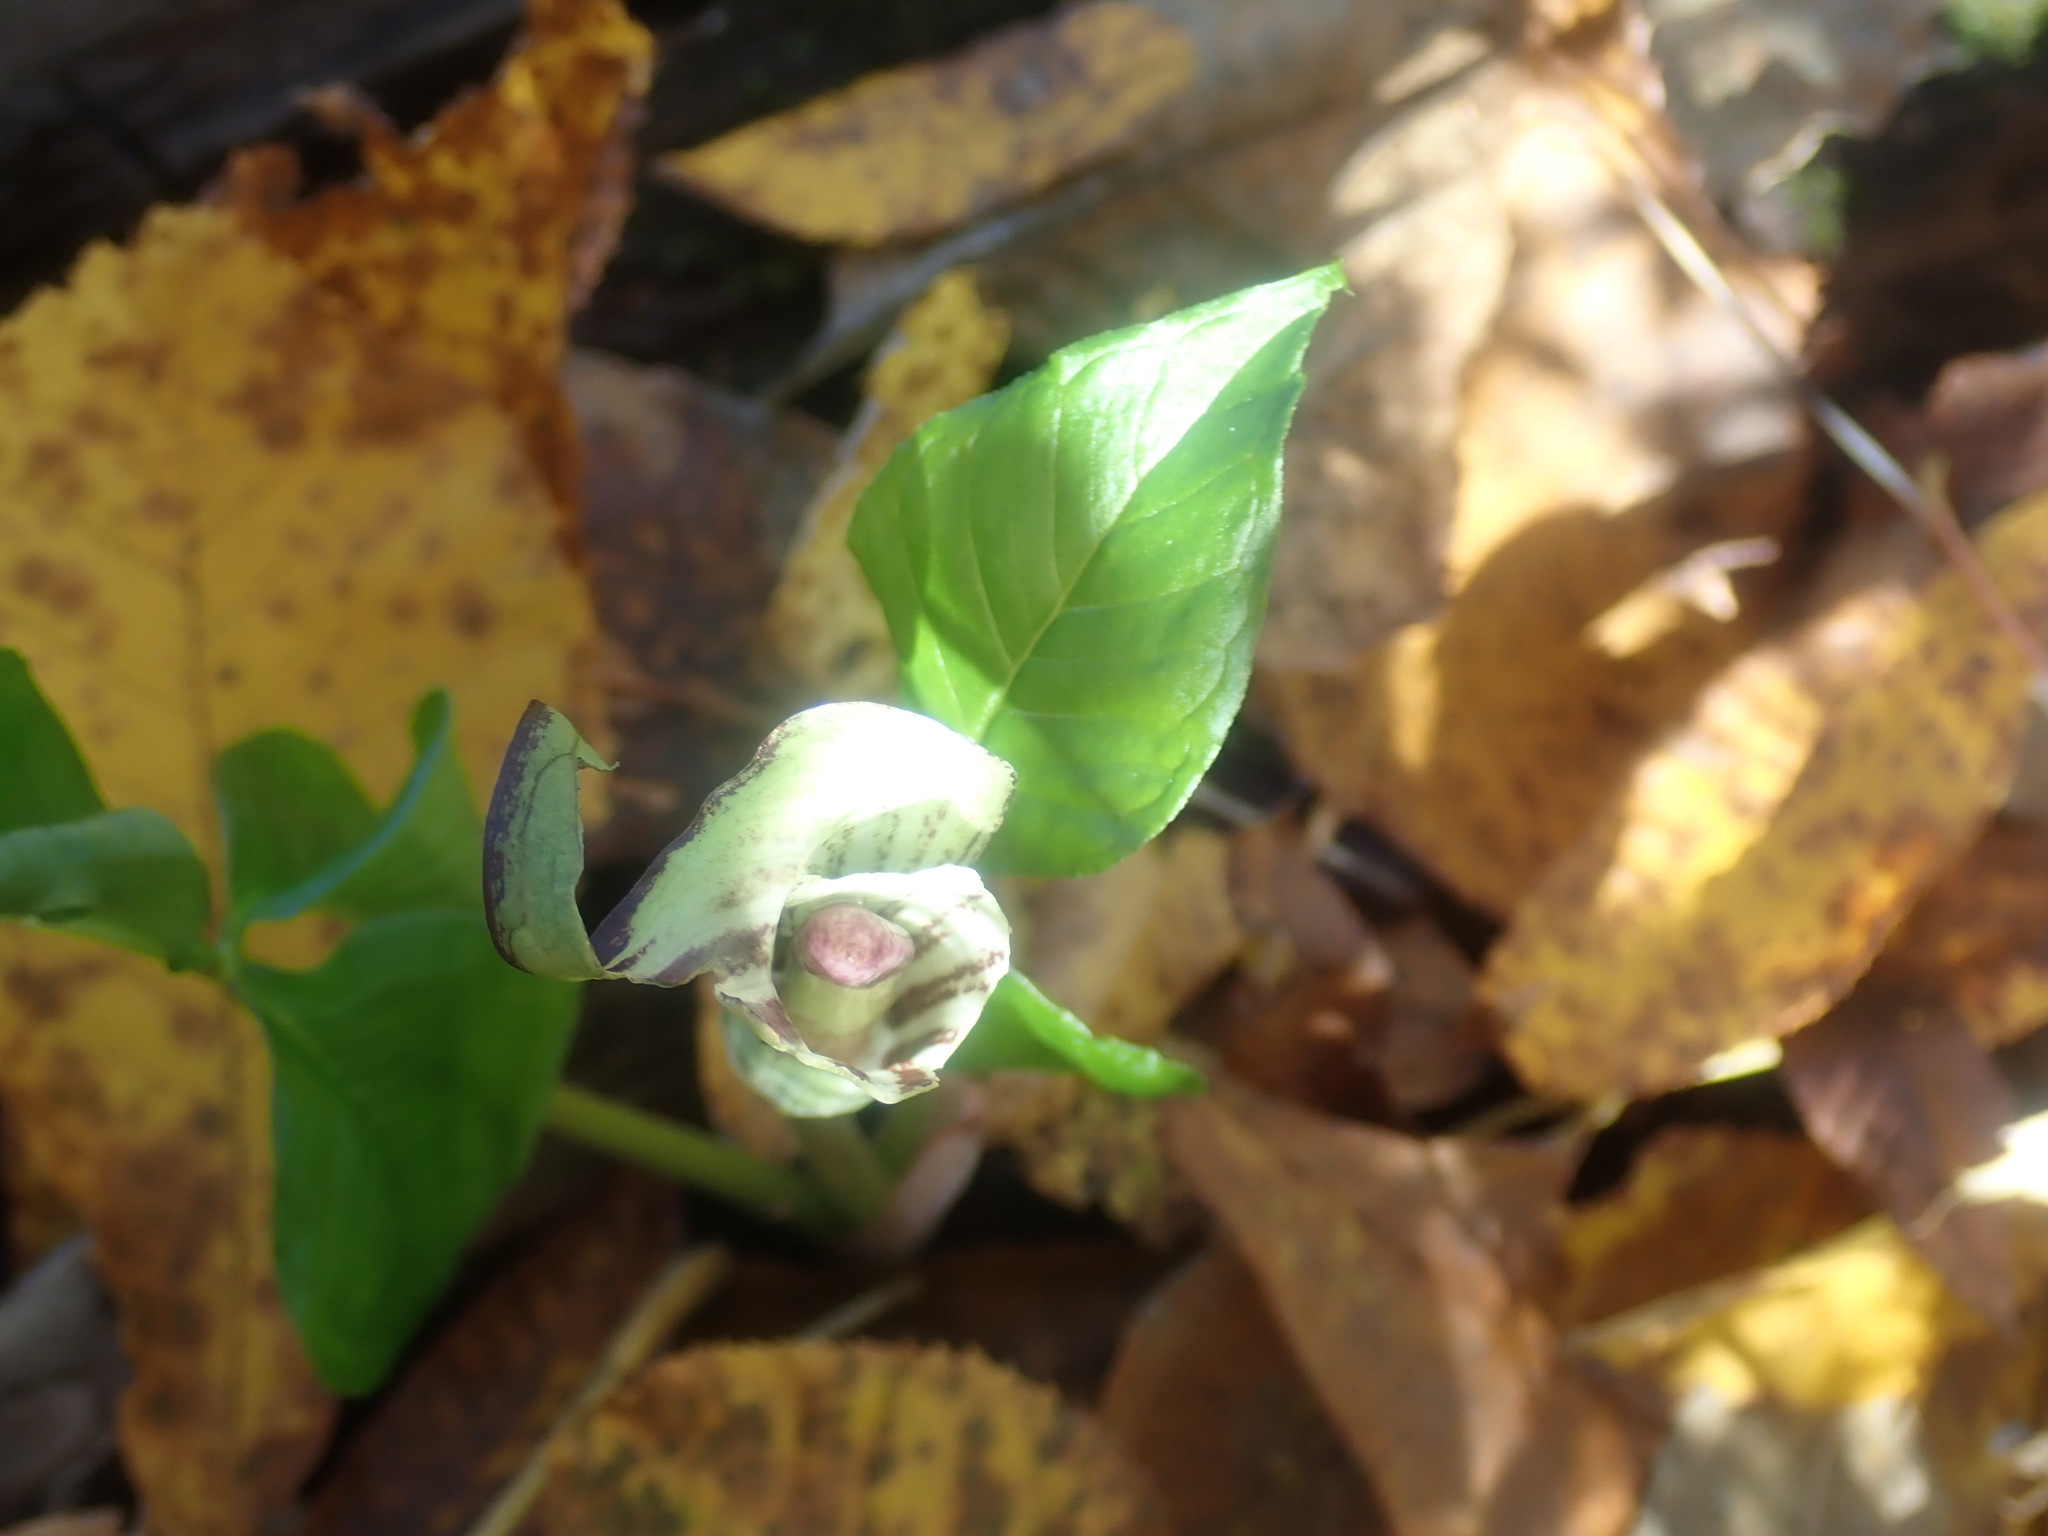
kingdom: Plantae
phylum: Tracheophyta
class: Liliopsida
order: Alismatales
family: Araceae
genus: Arisaema
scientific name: Arisaema triphyllum
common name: Jack-in-the-pulpit
